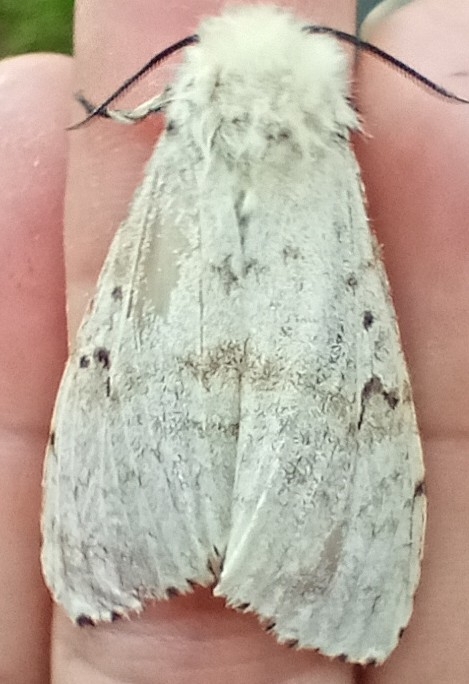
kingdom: Animalia
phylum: Arthropoda
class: Insecta
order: Lepidoptera
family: Erebidae
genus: Lymantria
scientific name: Lymantria dispar
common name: Gypsy moth
